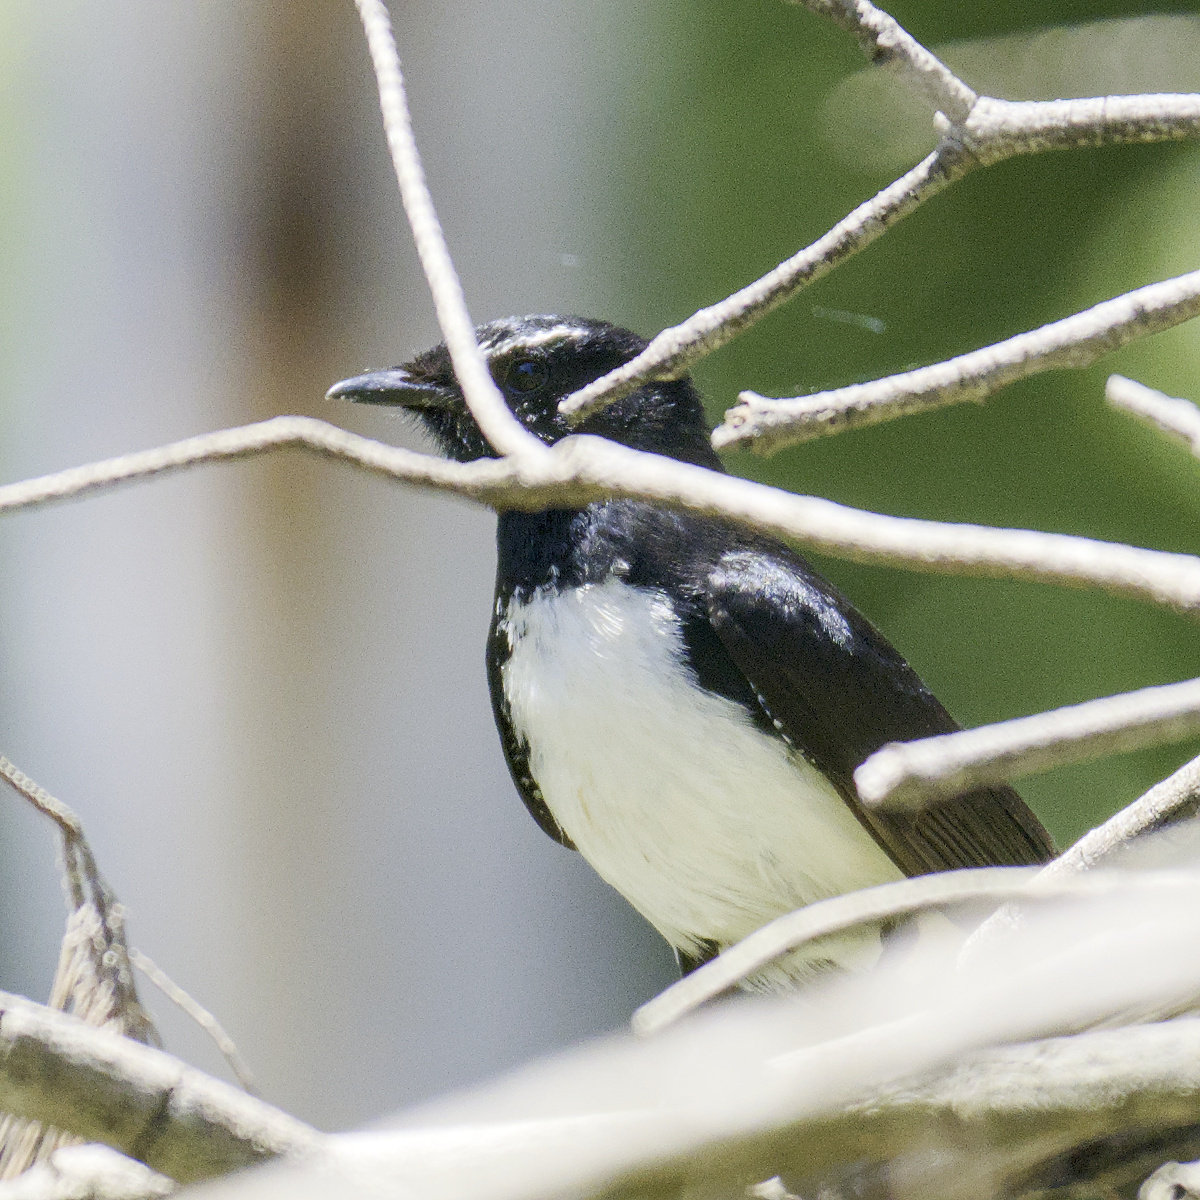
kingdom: Animalia
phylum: Chordata
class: Aves
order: Passeriformes
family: Rhipiduridae
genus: Rhipidura
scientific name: Rhipidura leucophrys
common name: Willie wagtail
